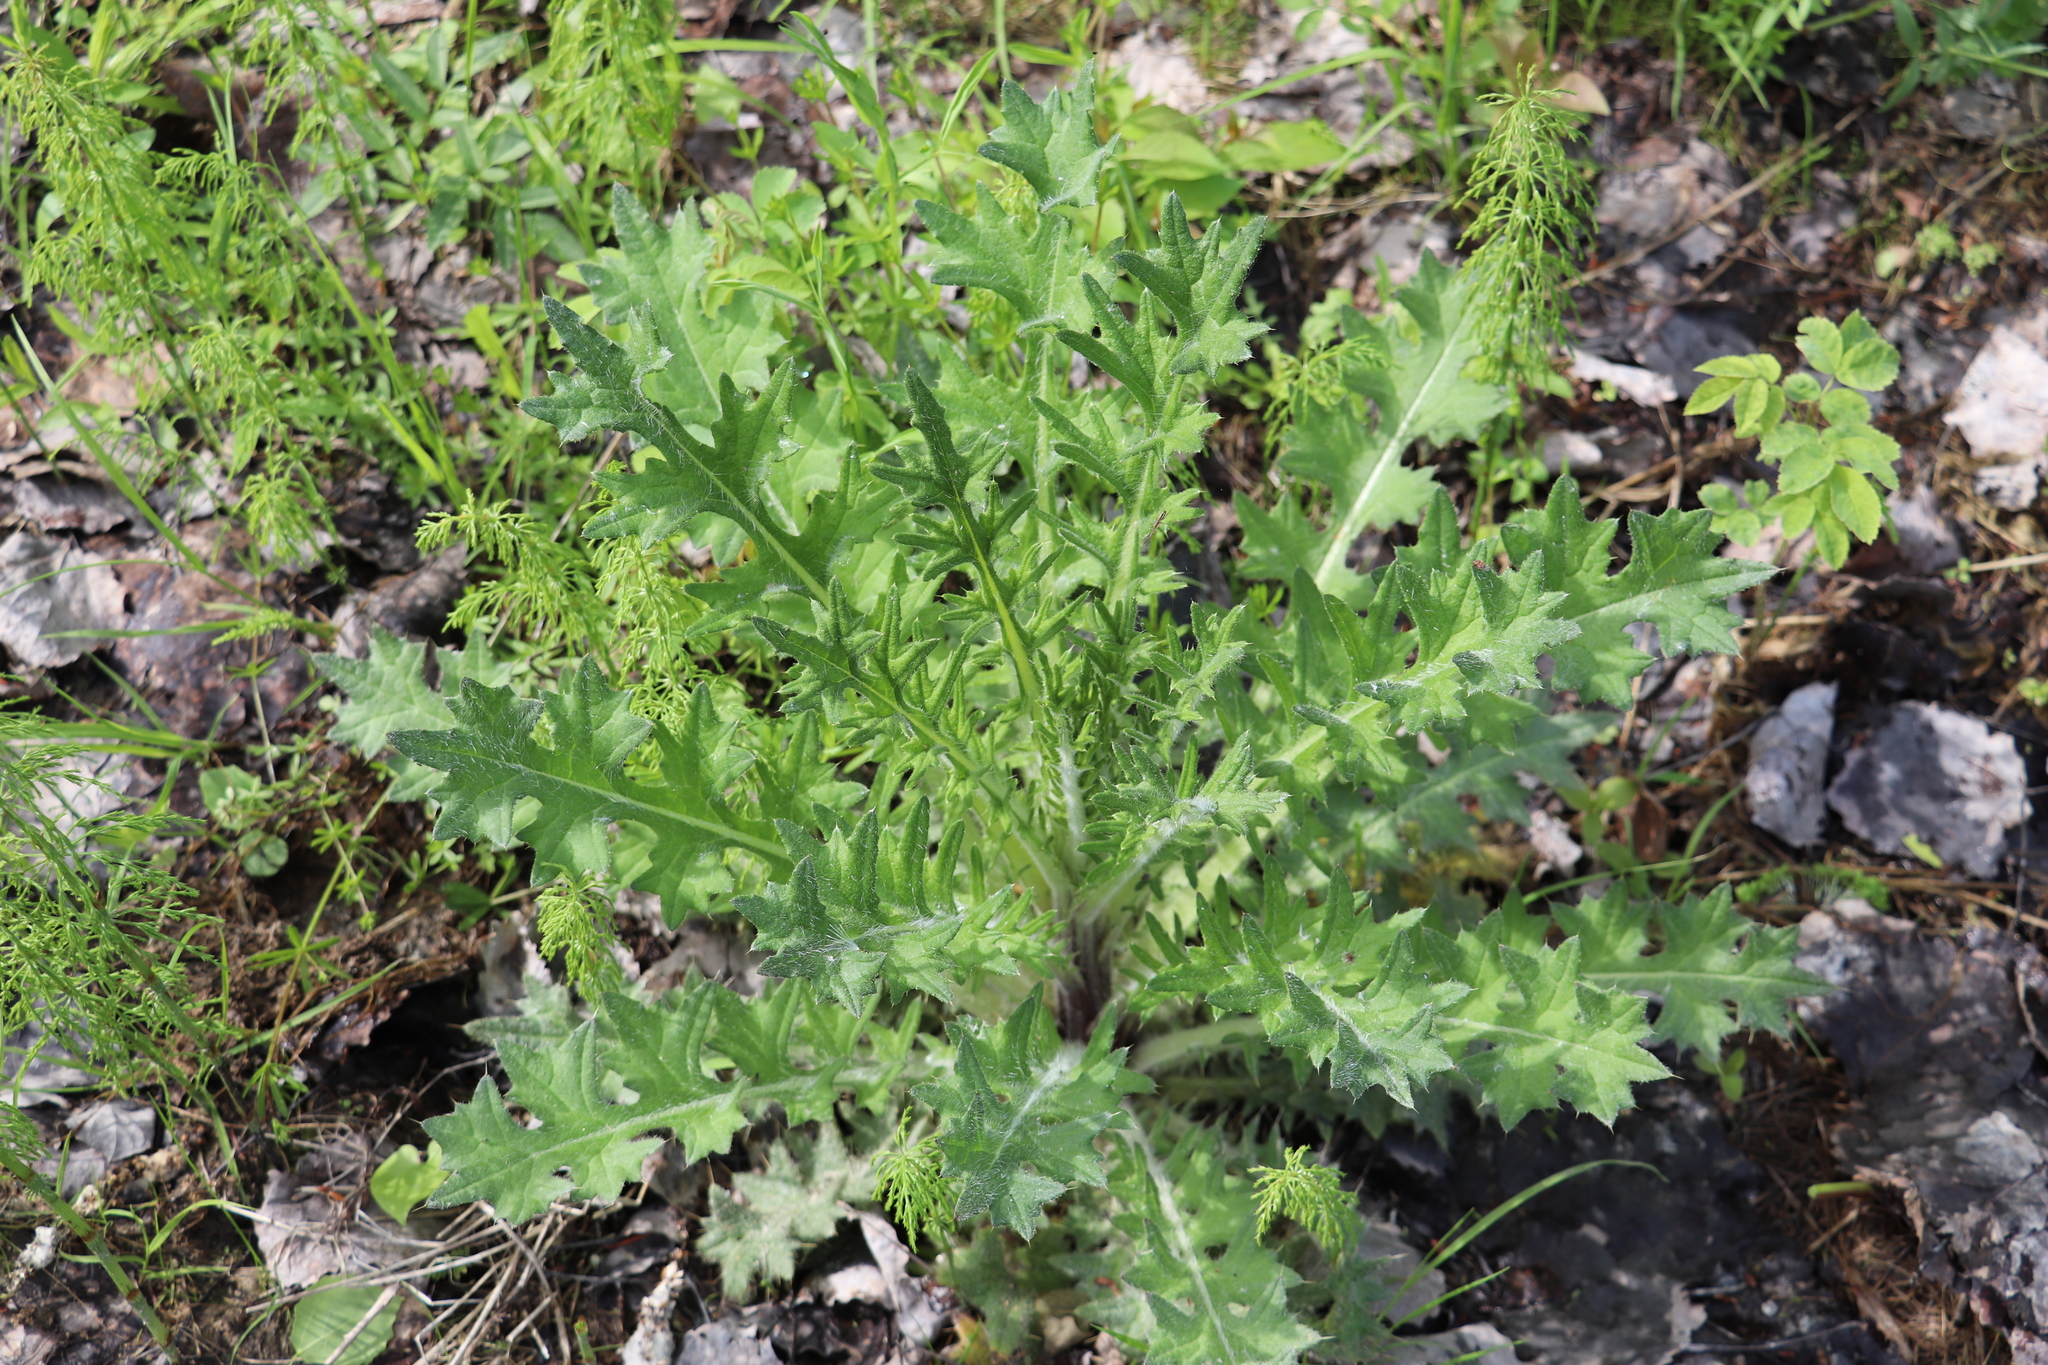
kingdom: Plantae
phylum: Tracheophyta
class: Magnoliopsida
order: Asterales
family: Asteraceae
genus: Cirsium
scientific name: Cirsium vulgare
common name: Bull thistle
